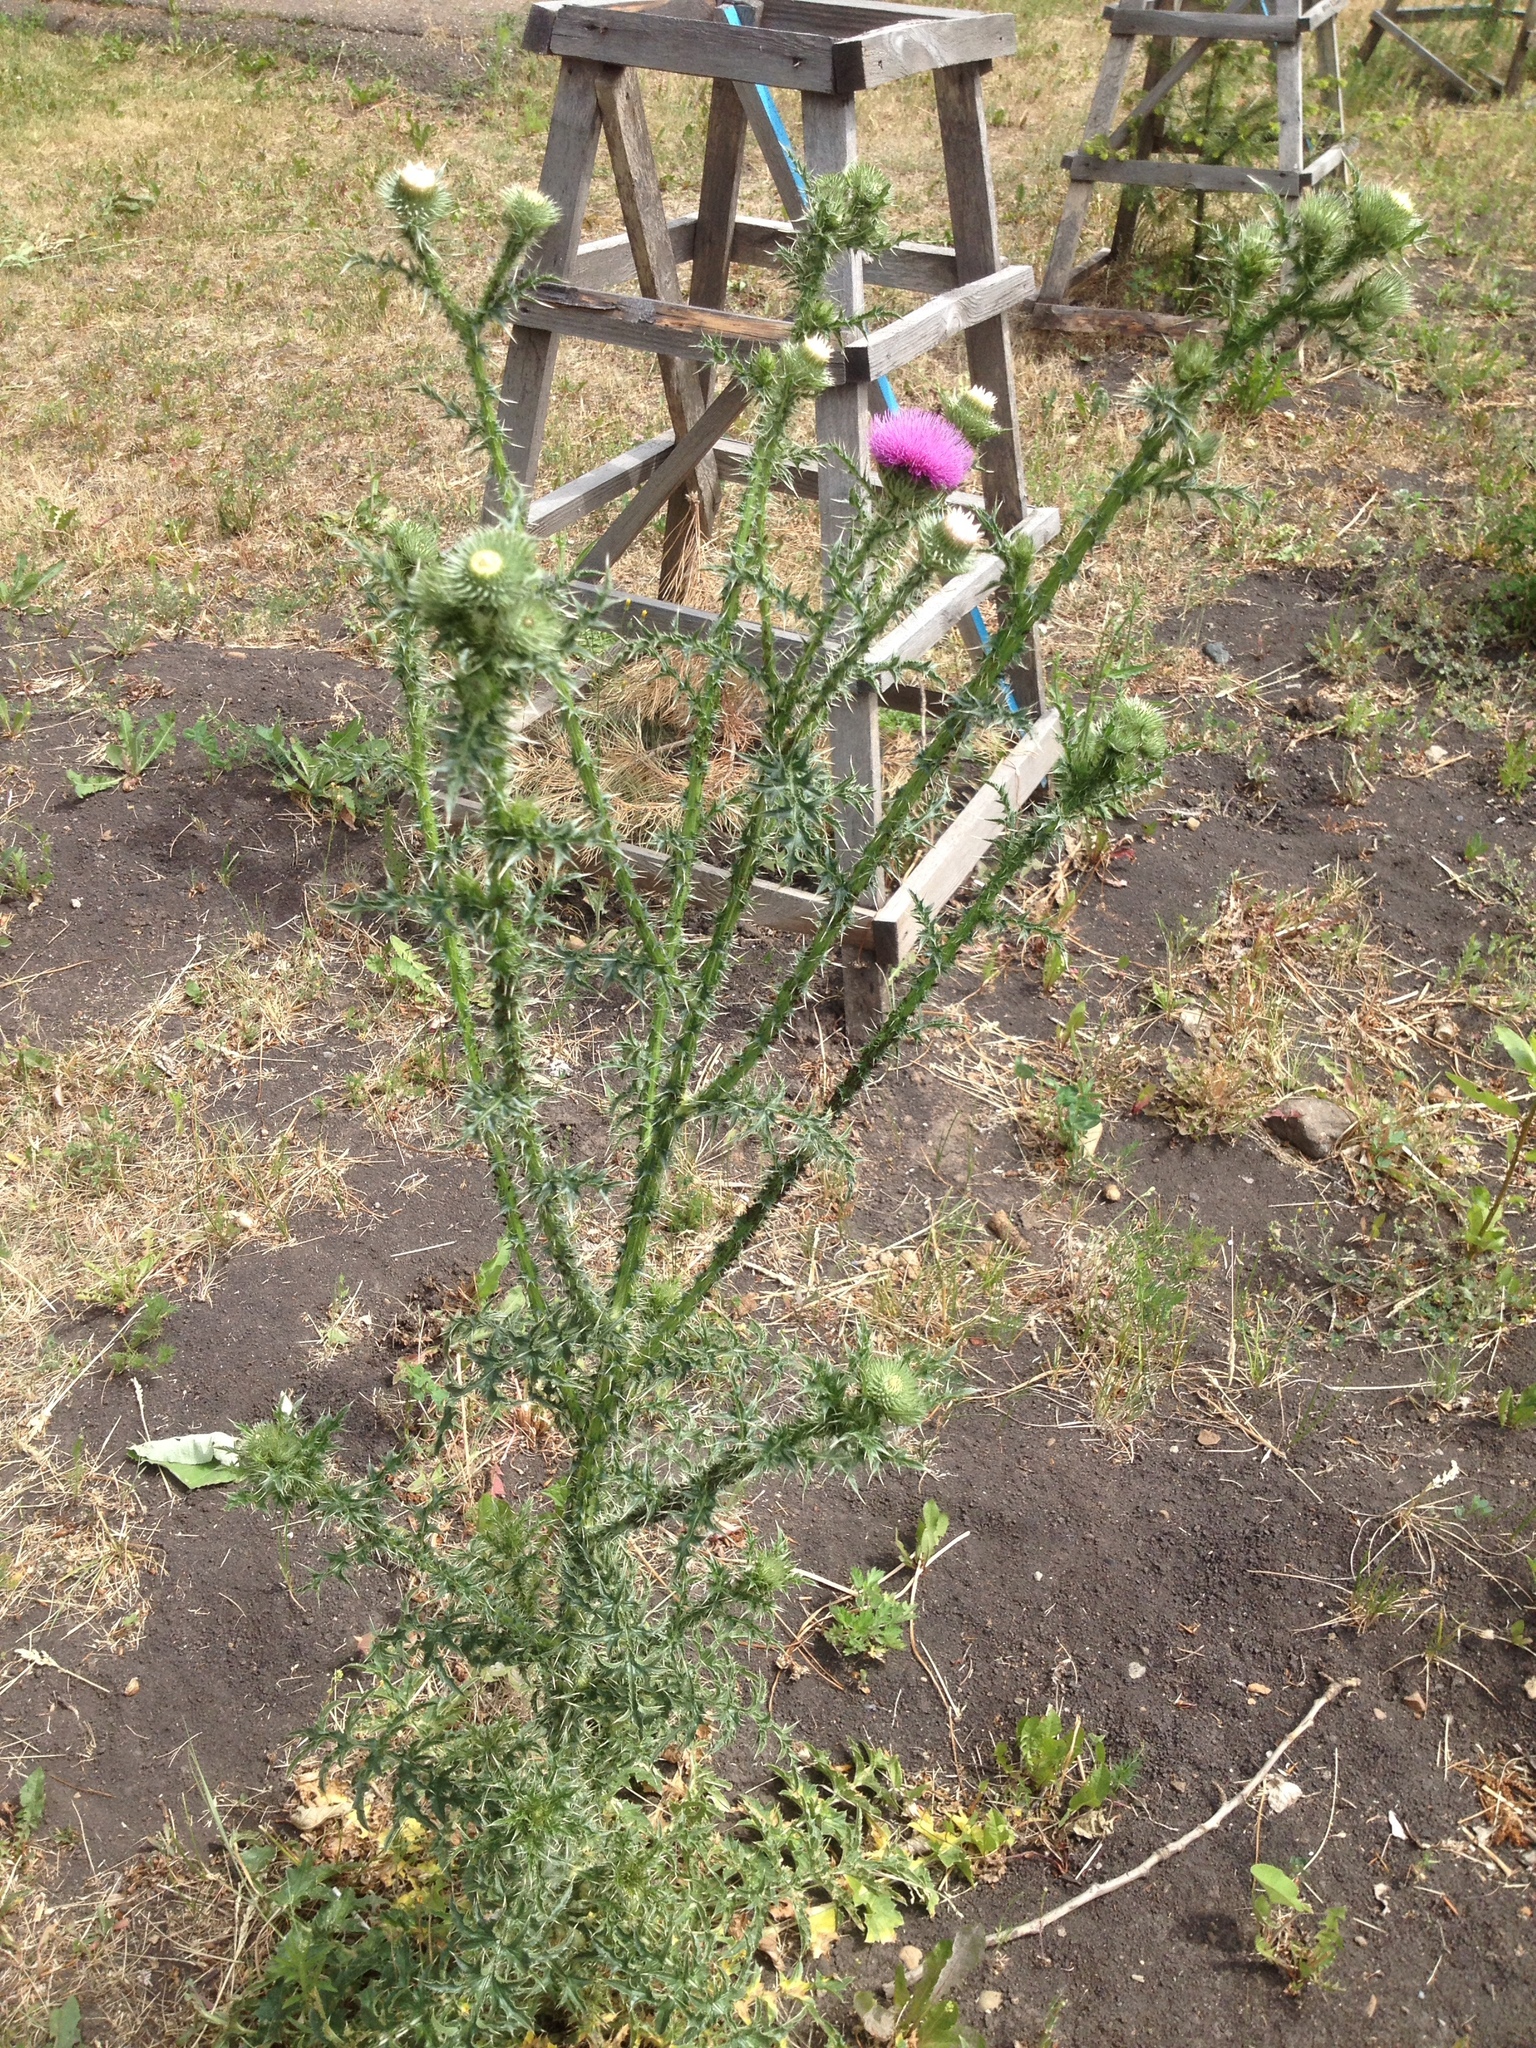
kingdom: Plantae
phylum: Tracheophyta
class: Magnoliopsida
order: Asterales
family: Asteraceae
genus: Carduus
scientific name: Carduus acanthoides
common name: Plumeless thistle
